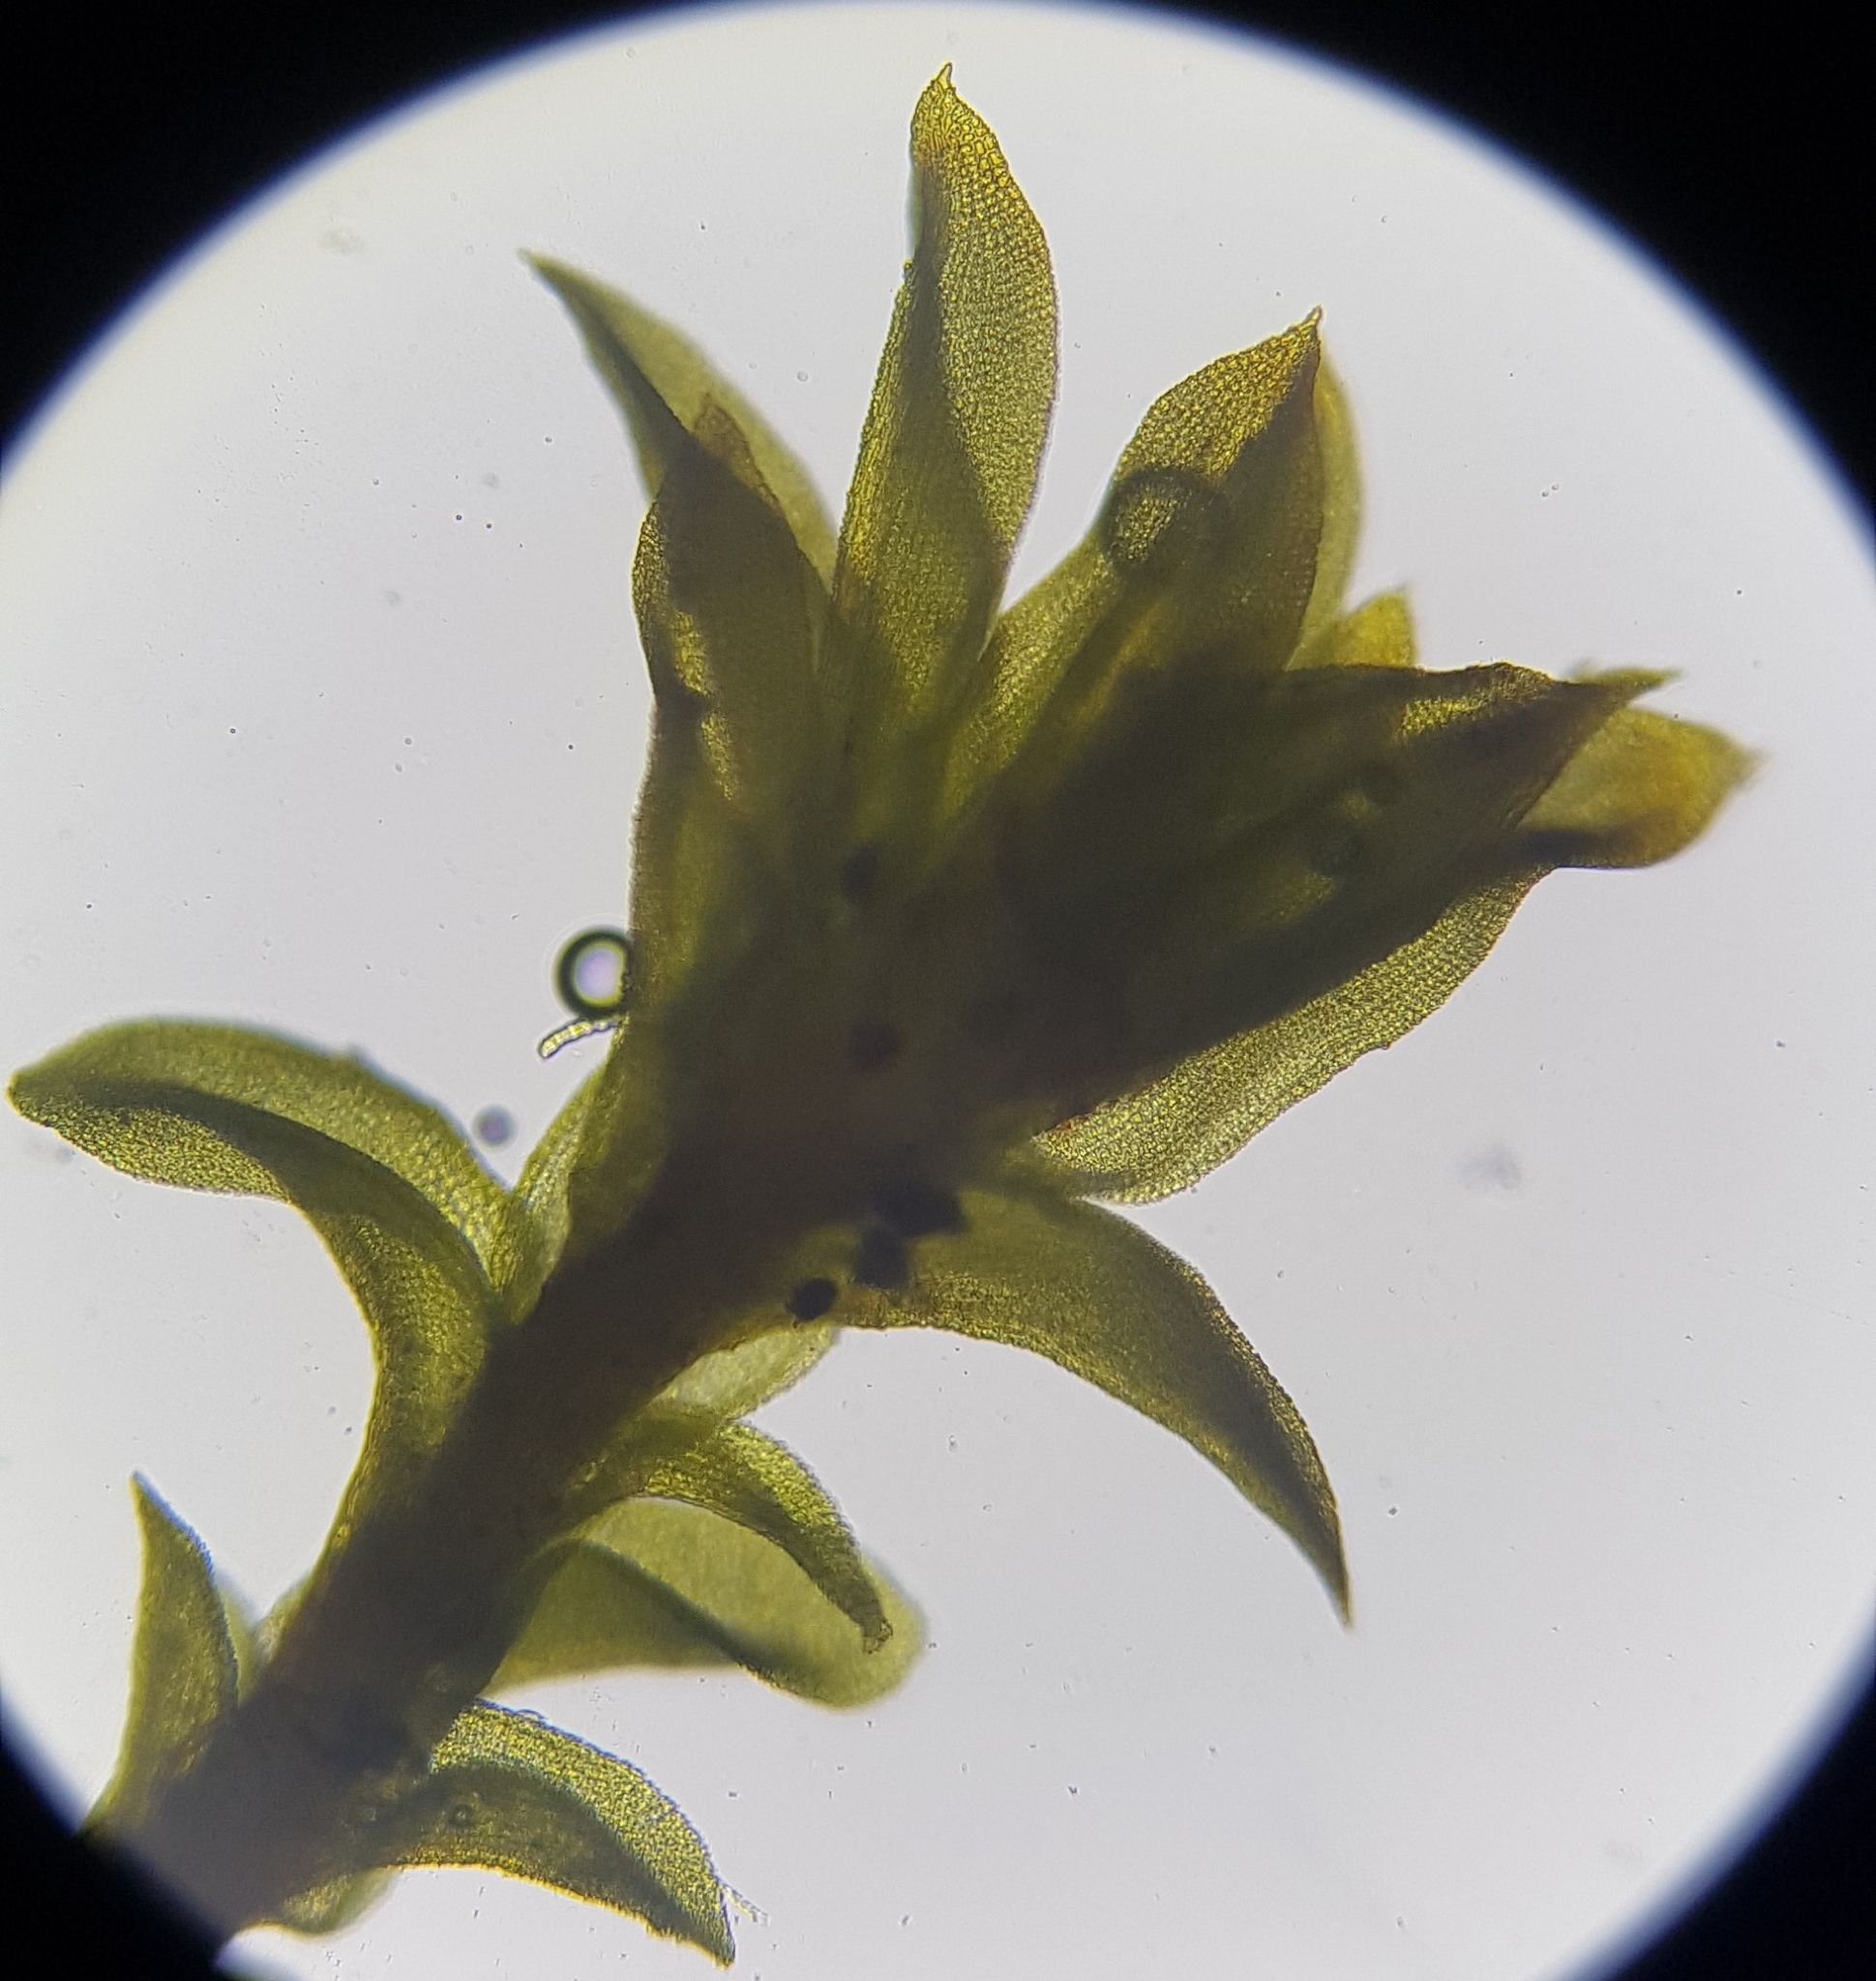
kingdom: Plantae
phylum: Bryophyta
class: Bryopsida
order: Pottiales
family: Pottiaceae
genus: Streblotrichum
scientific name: Streblotrichum convolutum
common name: Lesser bird's-claw beard-moss
